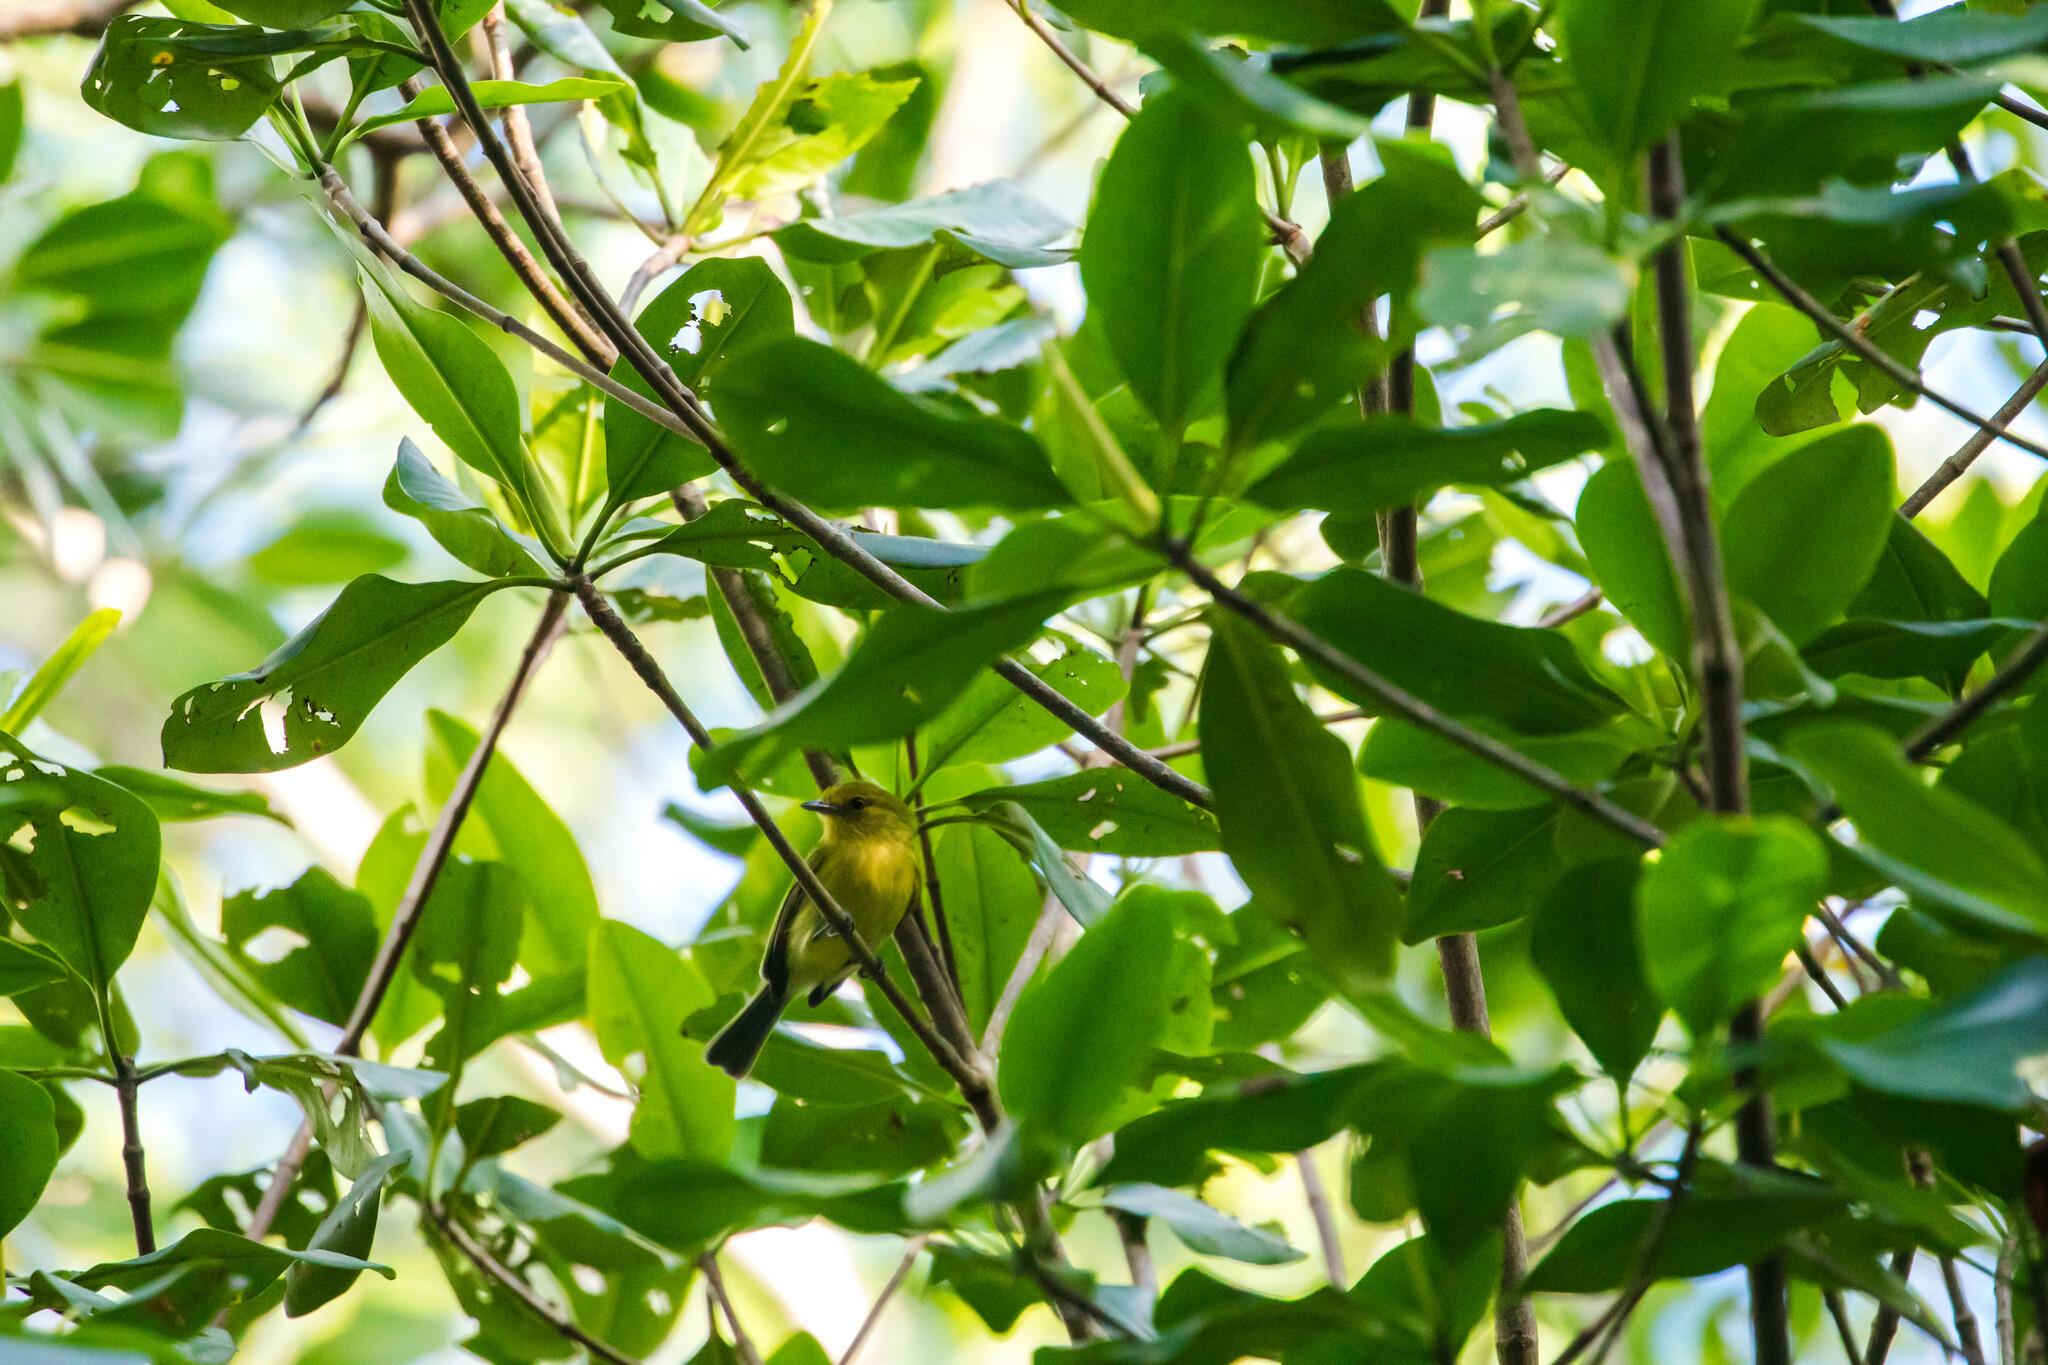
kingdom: Animalia
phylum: Chordata
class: Aves
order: Passeriformes
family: Tyrannidae
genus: Tolmomyias
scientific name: Tolmomyias flaviventris
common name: Ochre-lored flatbill
